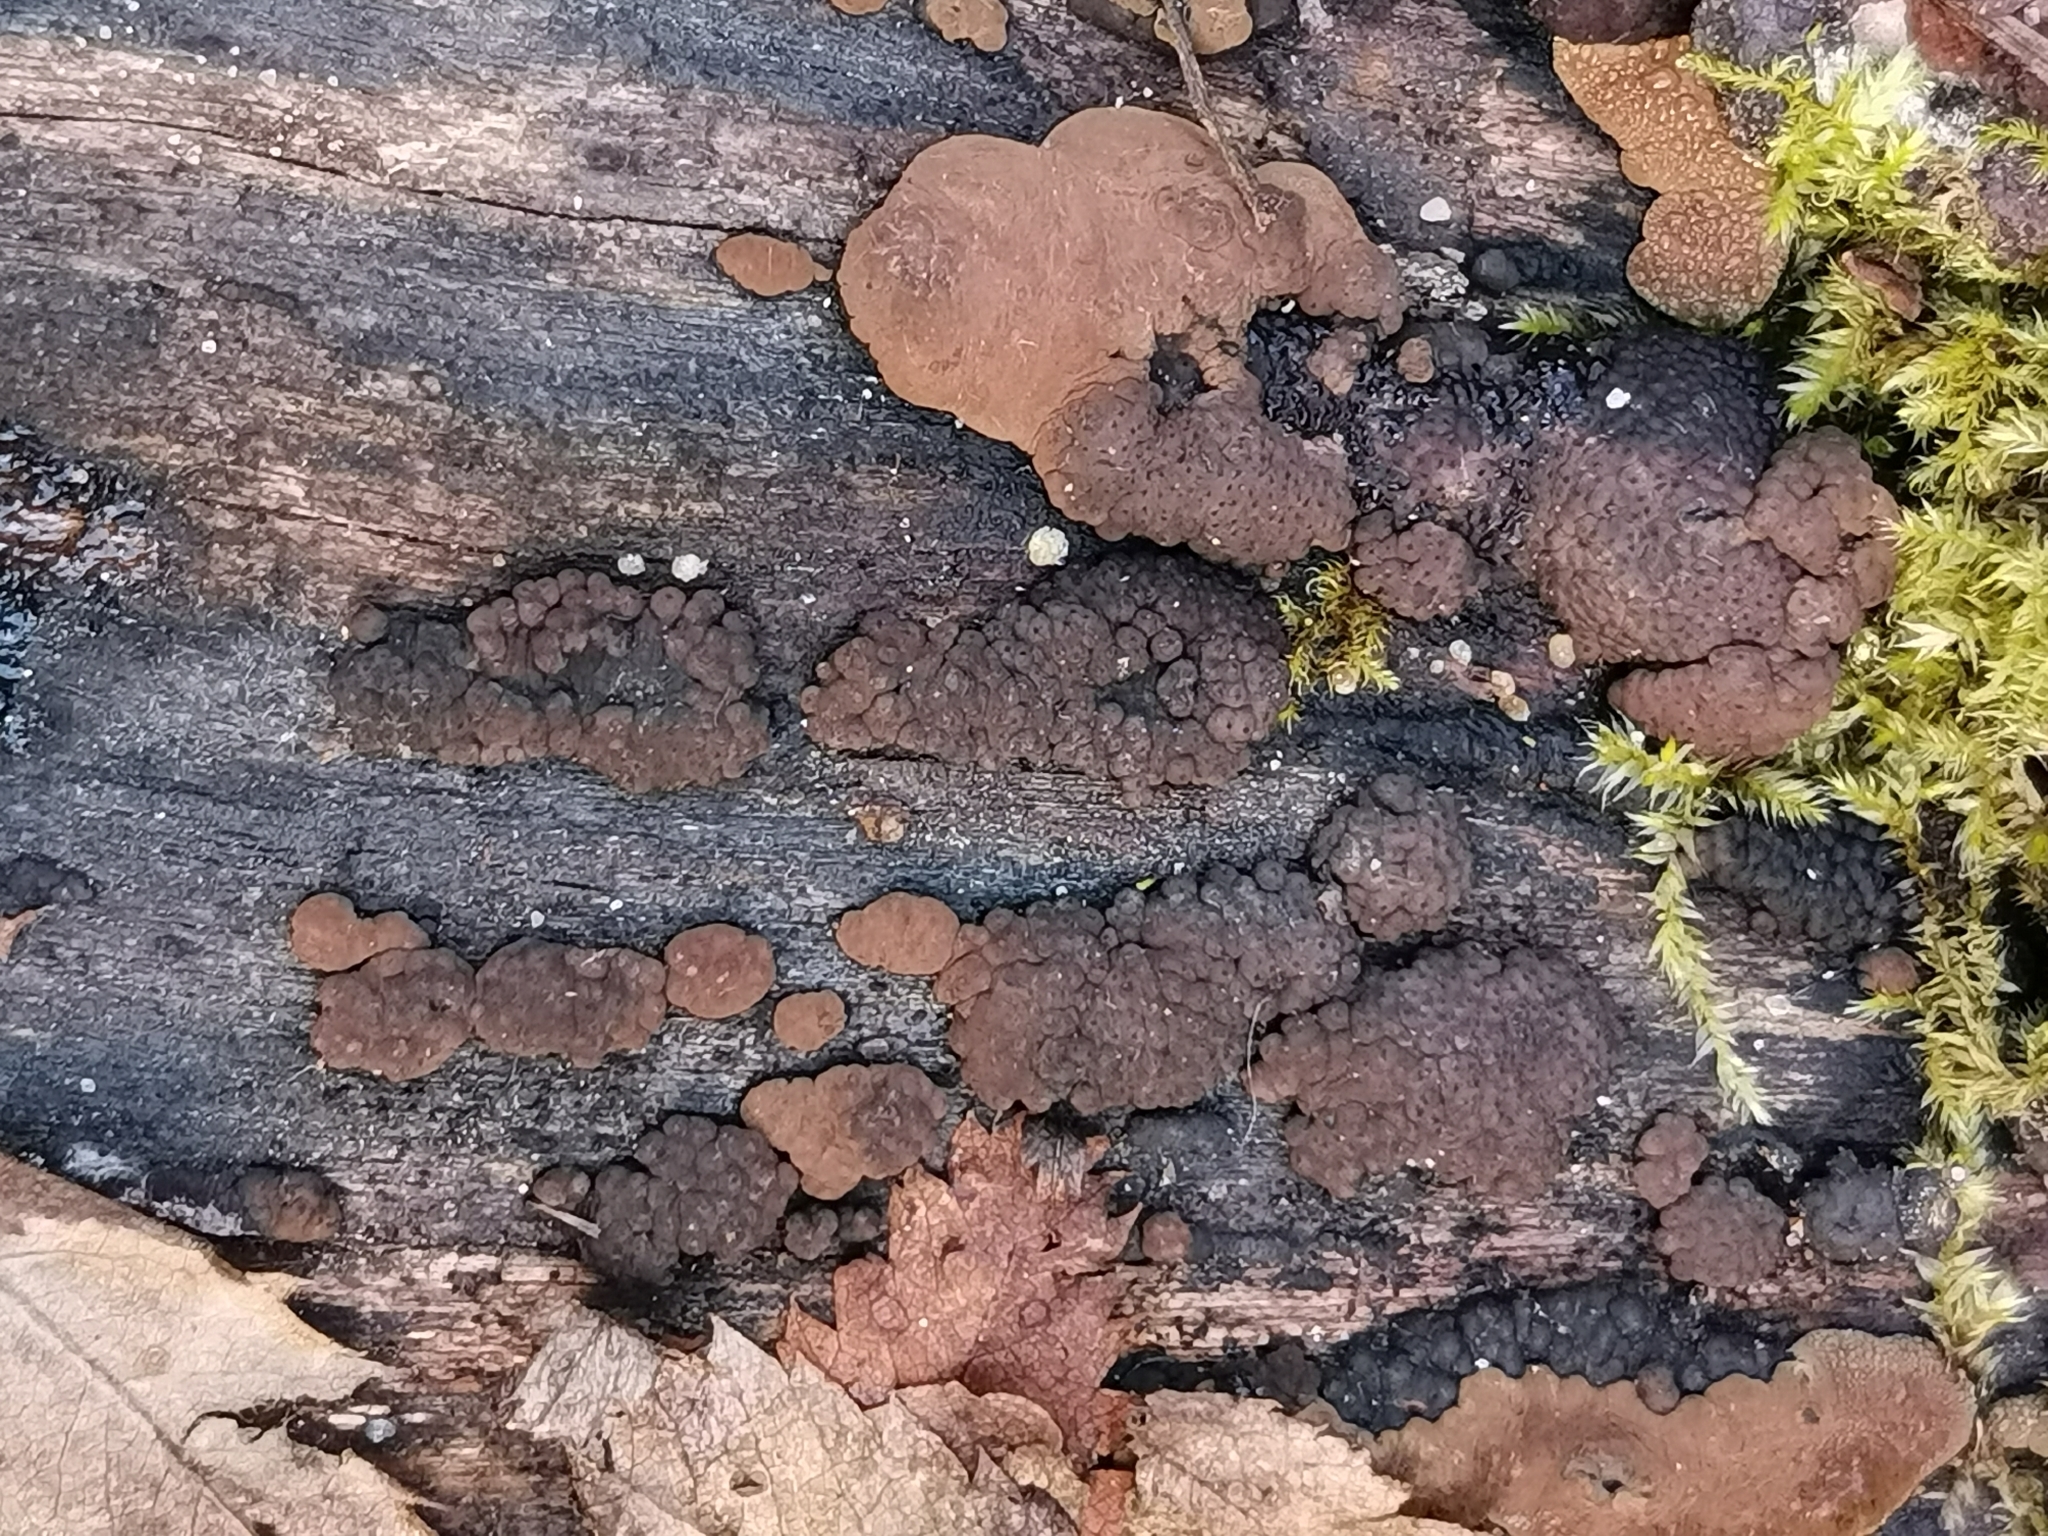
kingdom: Fungi
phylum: Ascomycota
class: Sordariomycetes
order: Xylariales
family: Hypoxylaceae
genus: Jackrogersella
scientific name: Jackrogersella multiformis
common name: Birch woodwart
